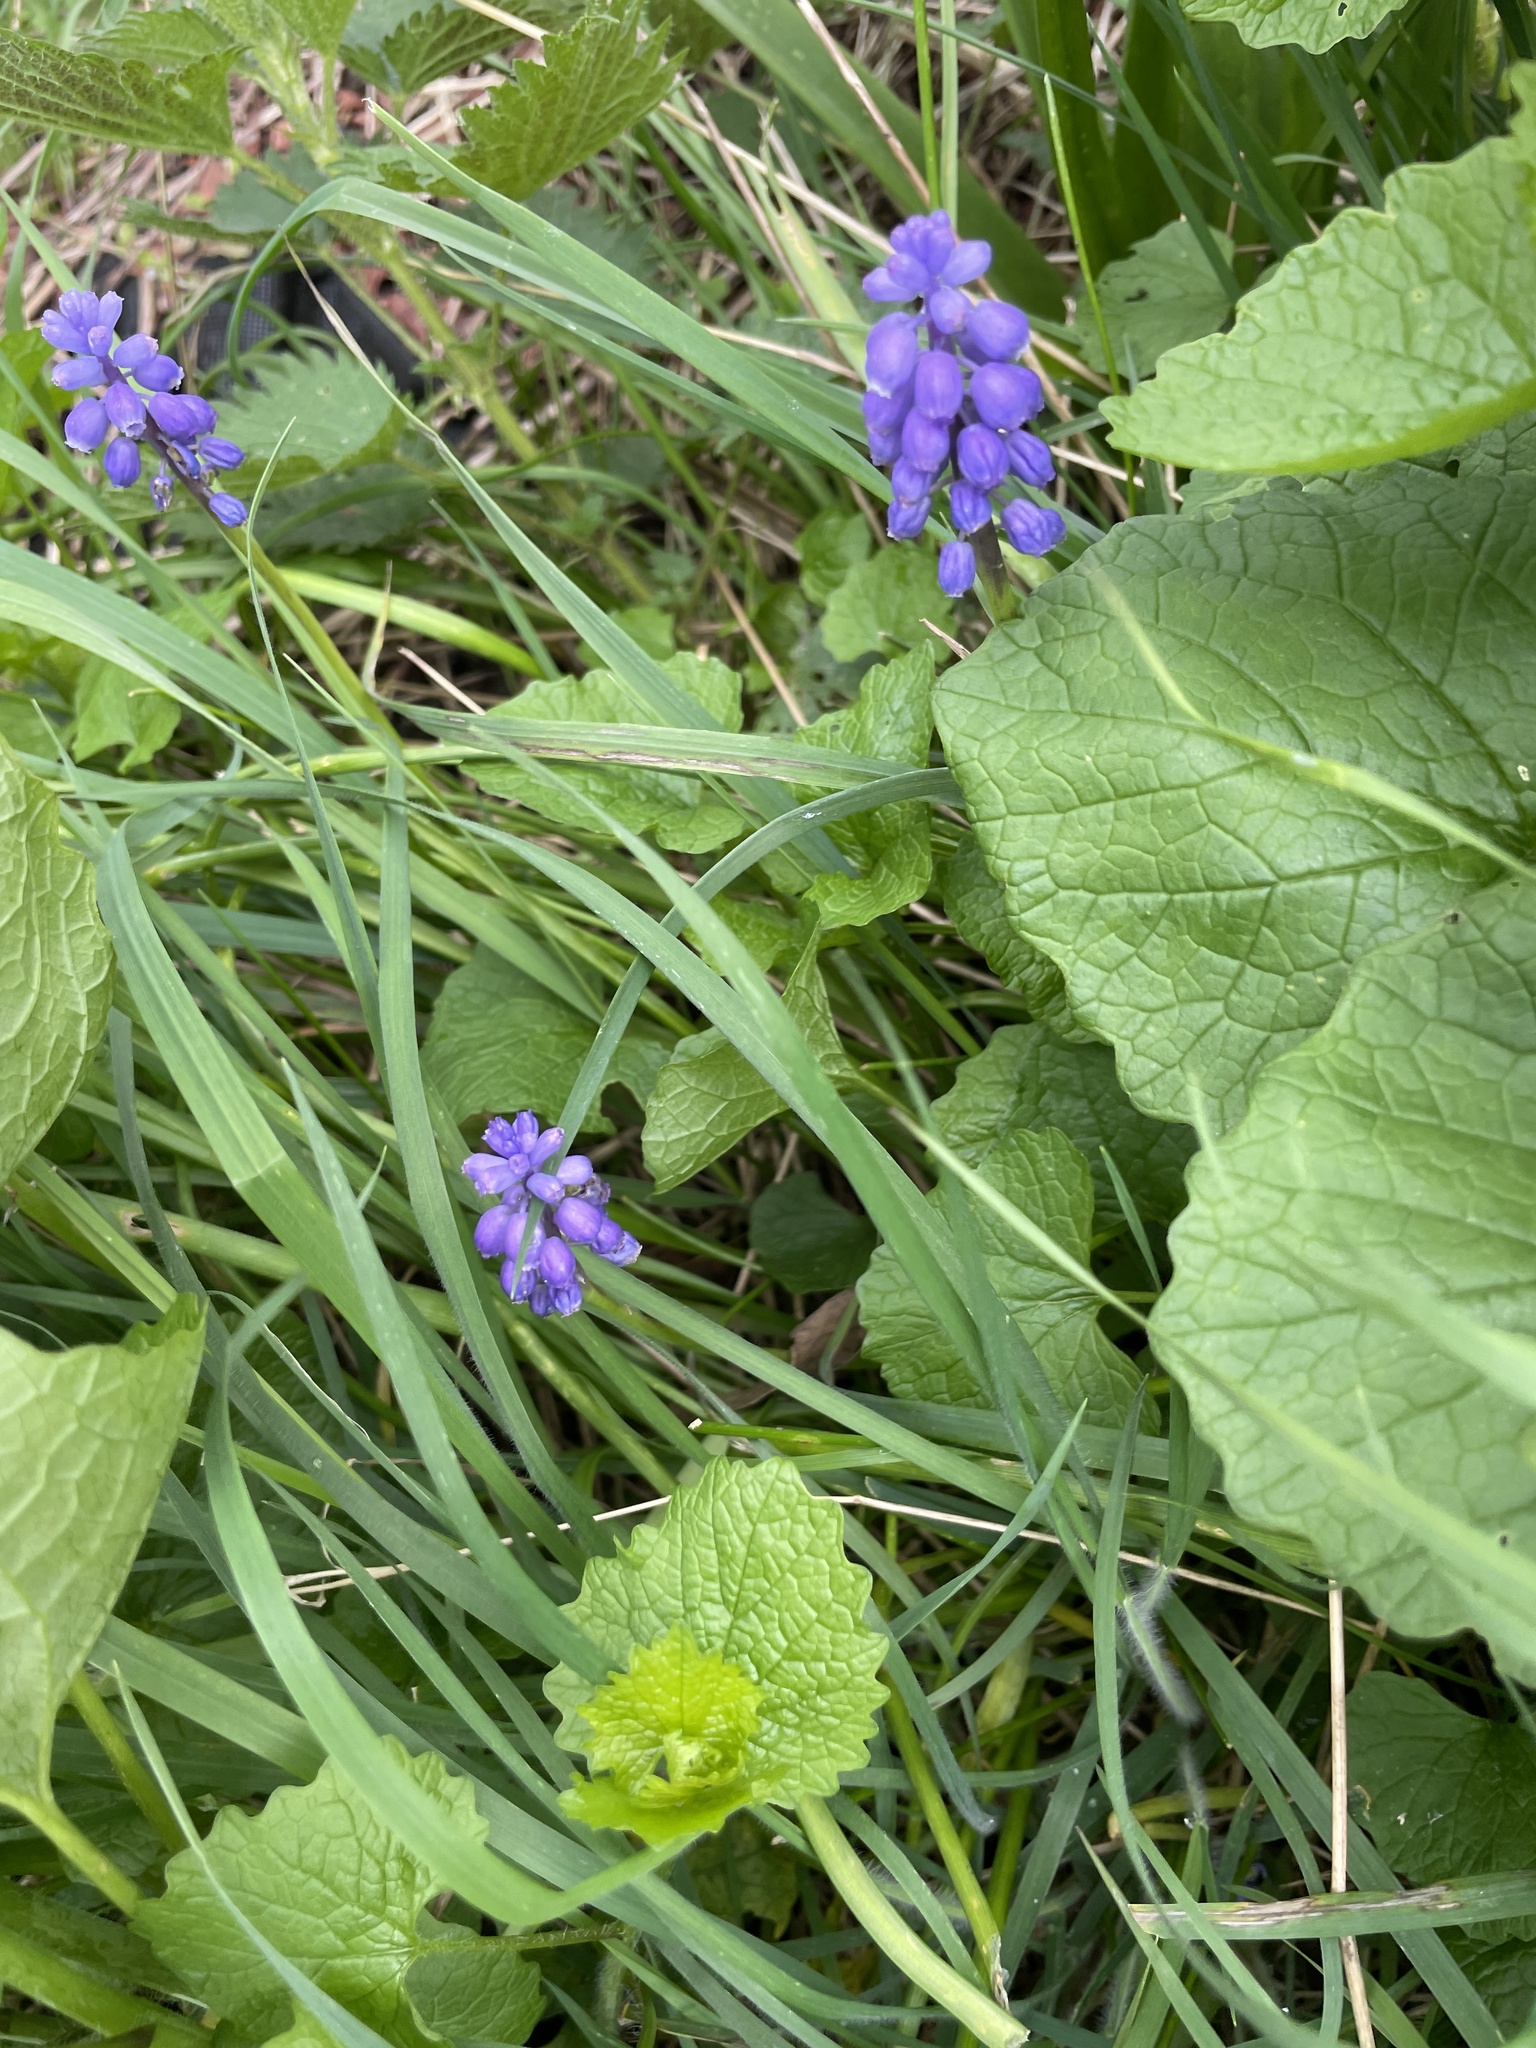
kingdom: Plantae
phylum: Tracheophyta
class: Liliopsida
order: Asparagales
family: Asparagaceae
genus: Muscari
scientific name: Muscari armeniacum
